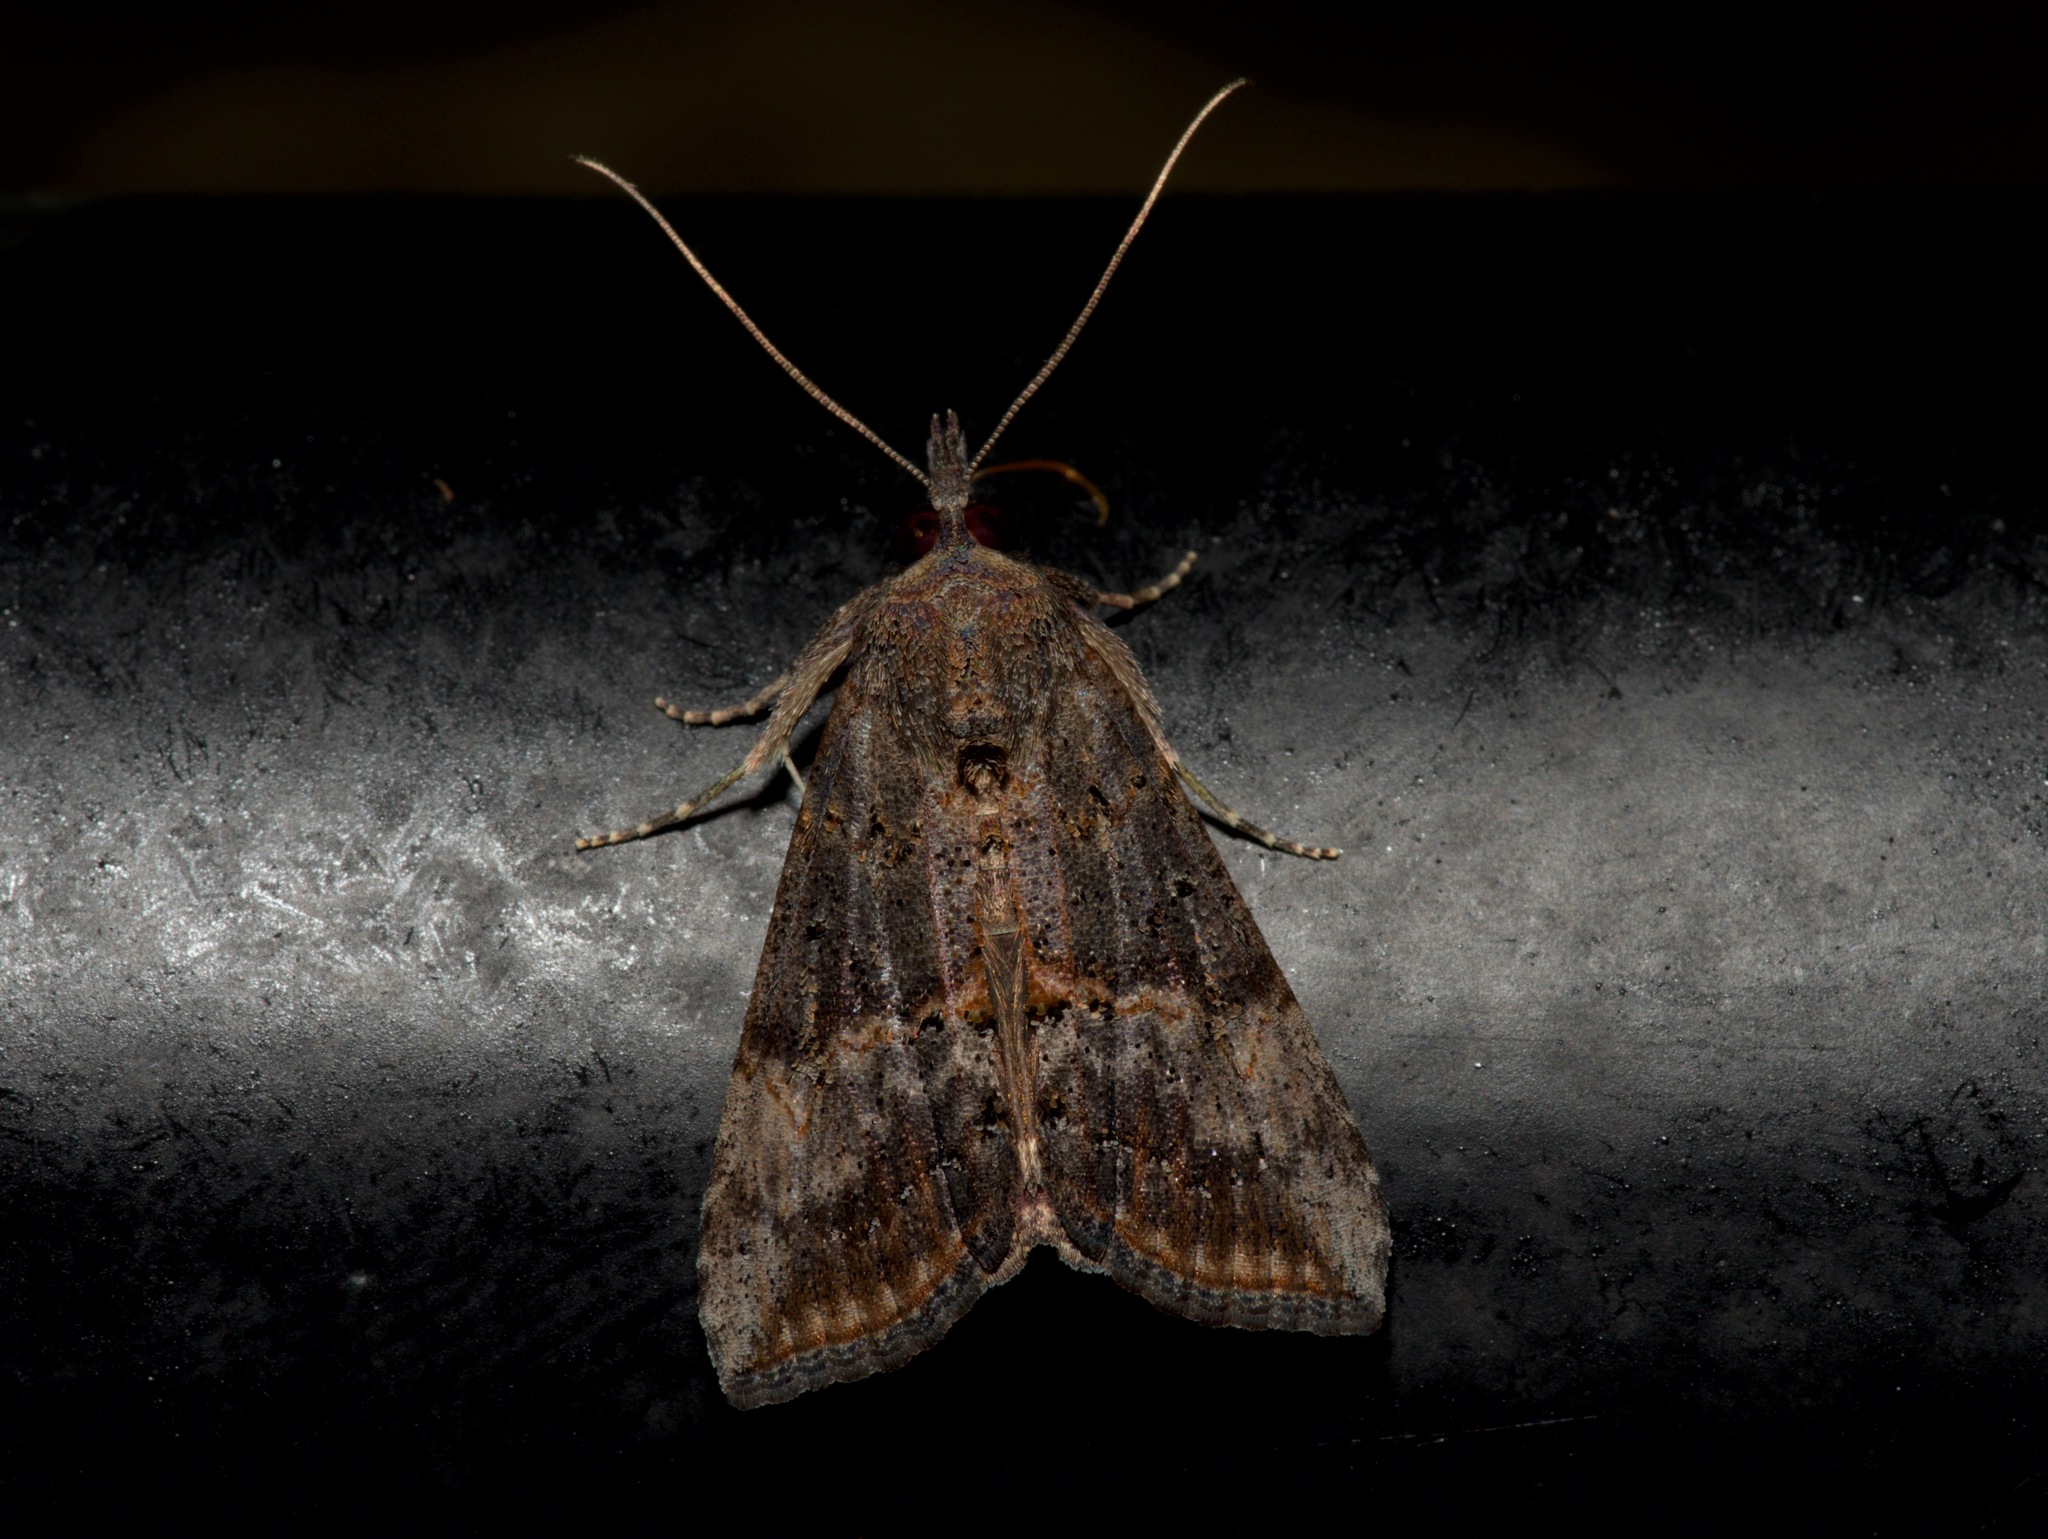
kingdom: Animalia
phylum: Arthropoda
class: Insecta
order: Lepidoptera
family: Erebidae
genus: Hypena
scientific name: Hypena scabra
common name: Green cloverworm
